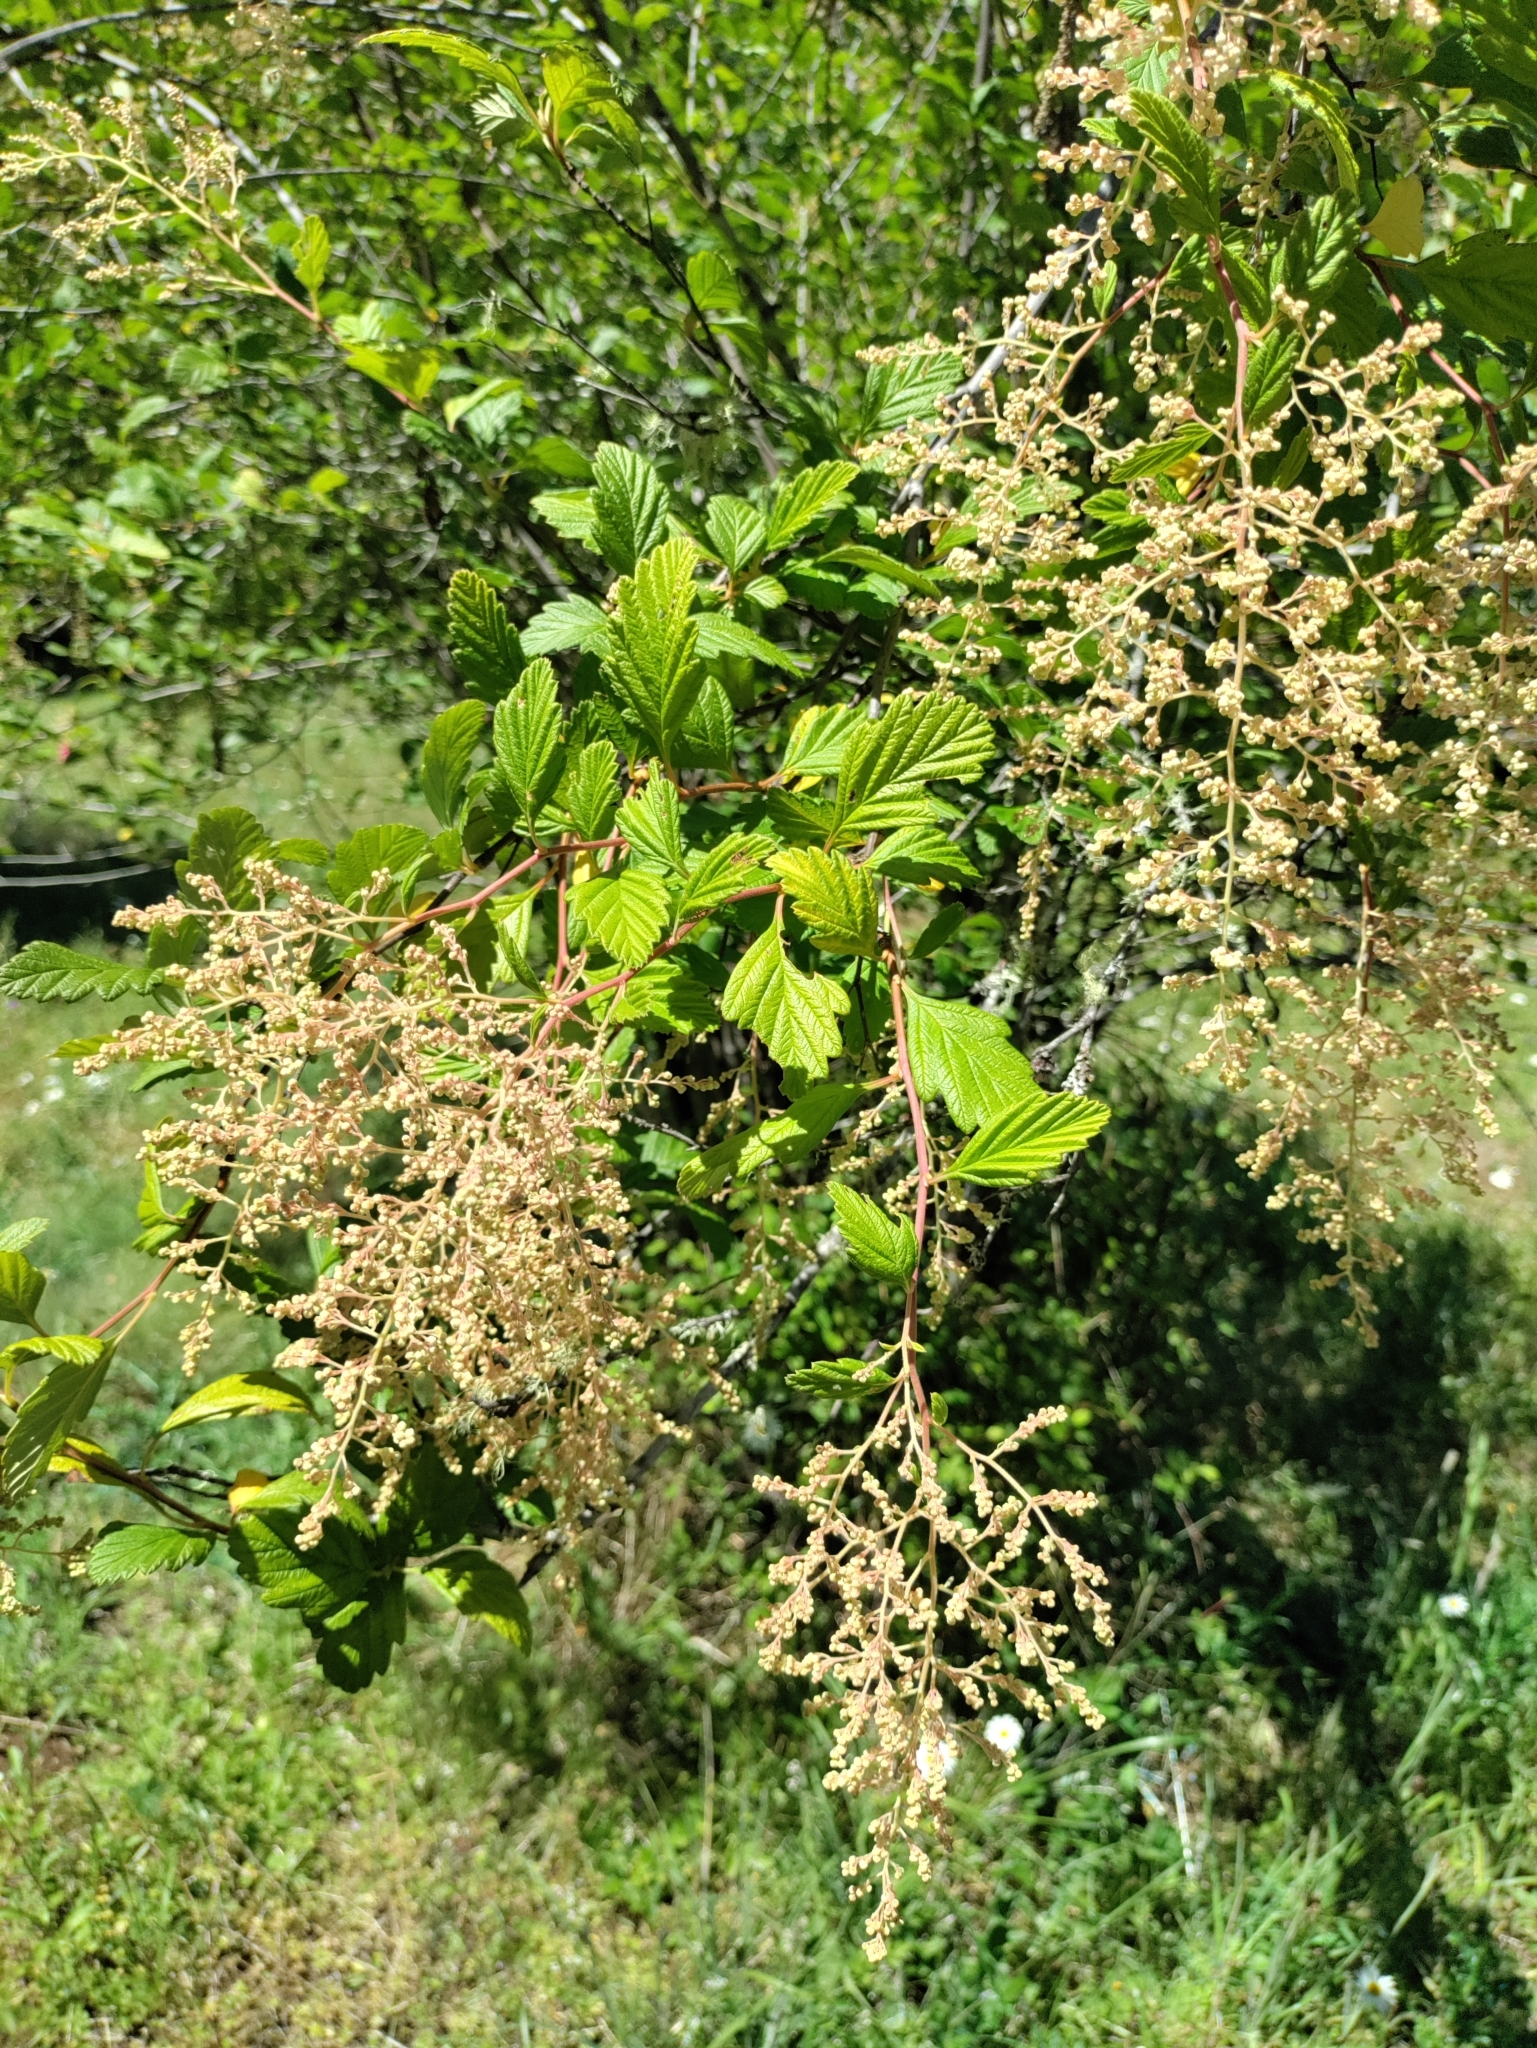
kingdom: Plantae
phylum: Tracheophyta
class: Magnoliopsida
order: Rosales
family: Rosaceae
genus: Holodiscus
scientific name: Holodiscus discolor
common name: Oceanspray
